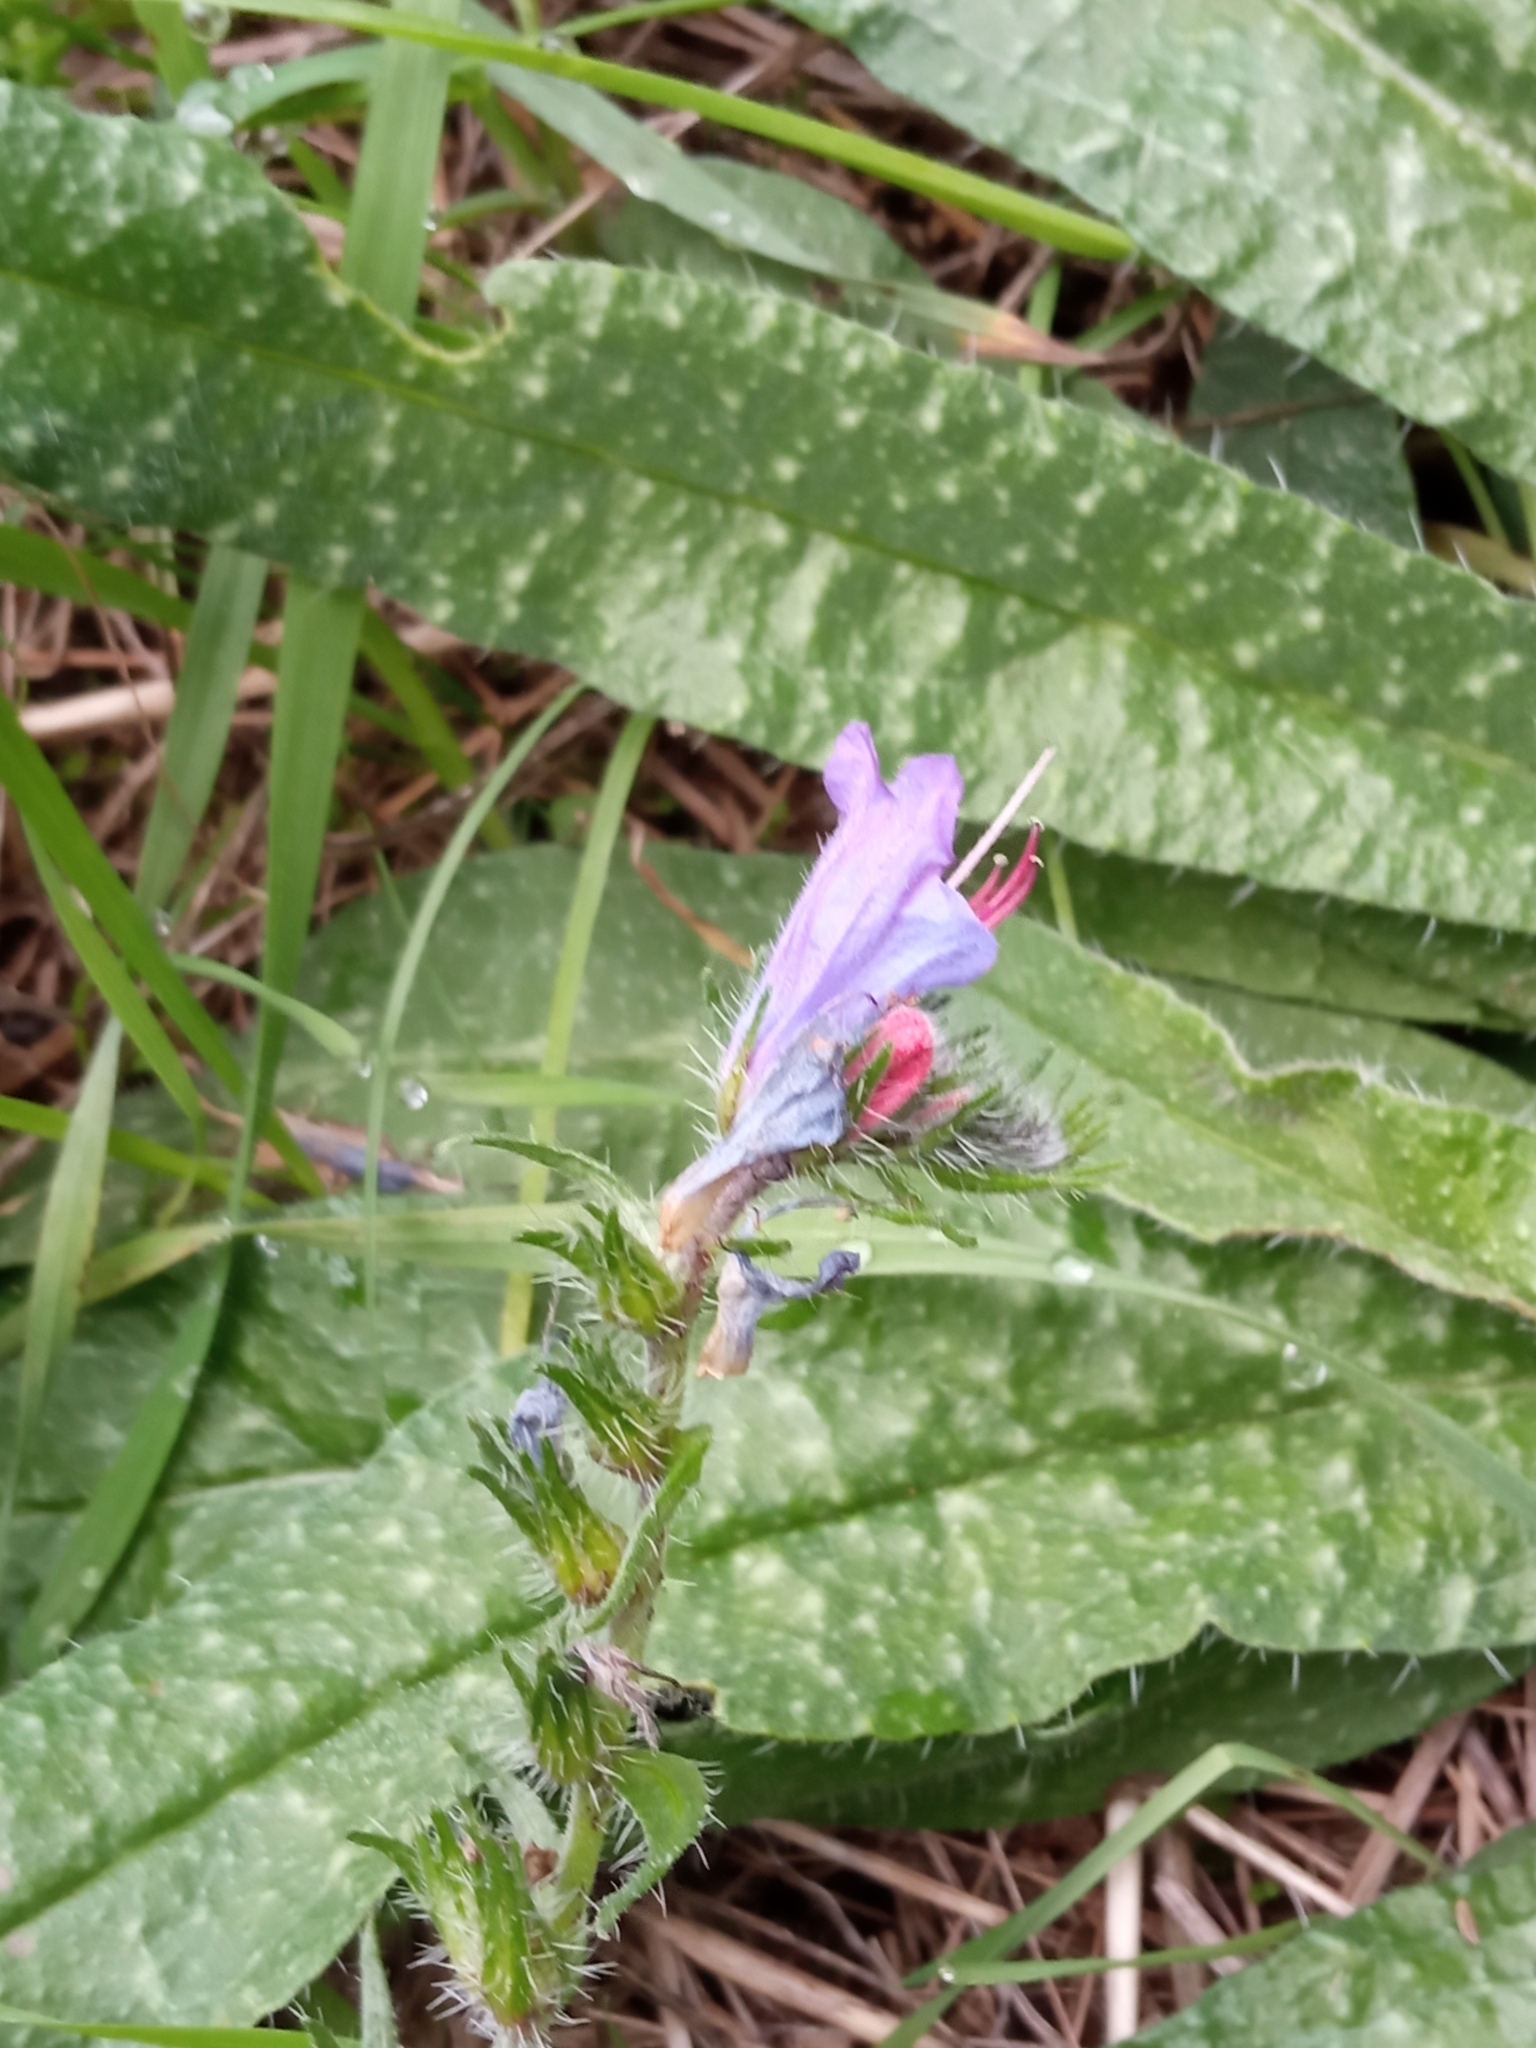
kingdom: Plantae
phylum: Tracheophyta
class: Magnoliopsida
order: Boraginales
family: Boraginaceae
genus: Echium
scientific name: Echium vulgare
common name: Common viper's bugloss
